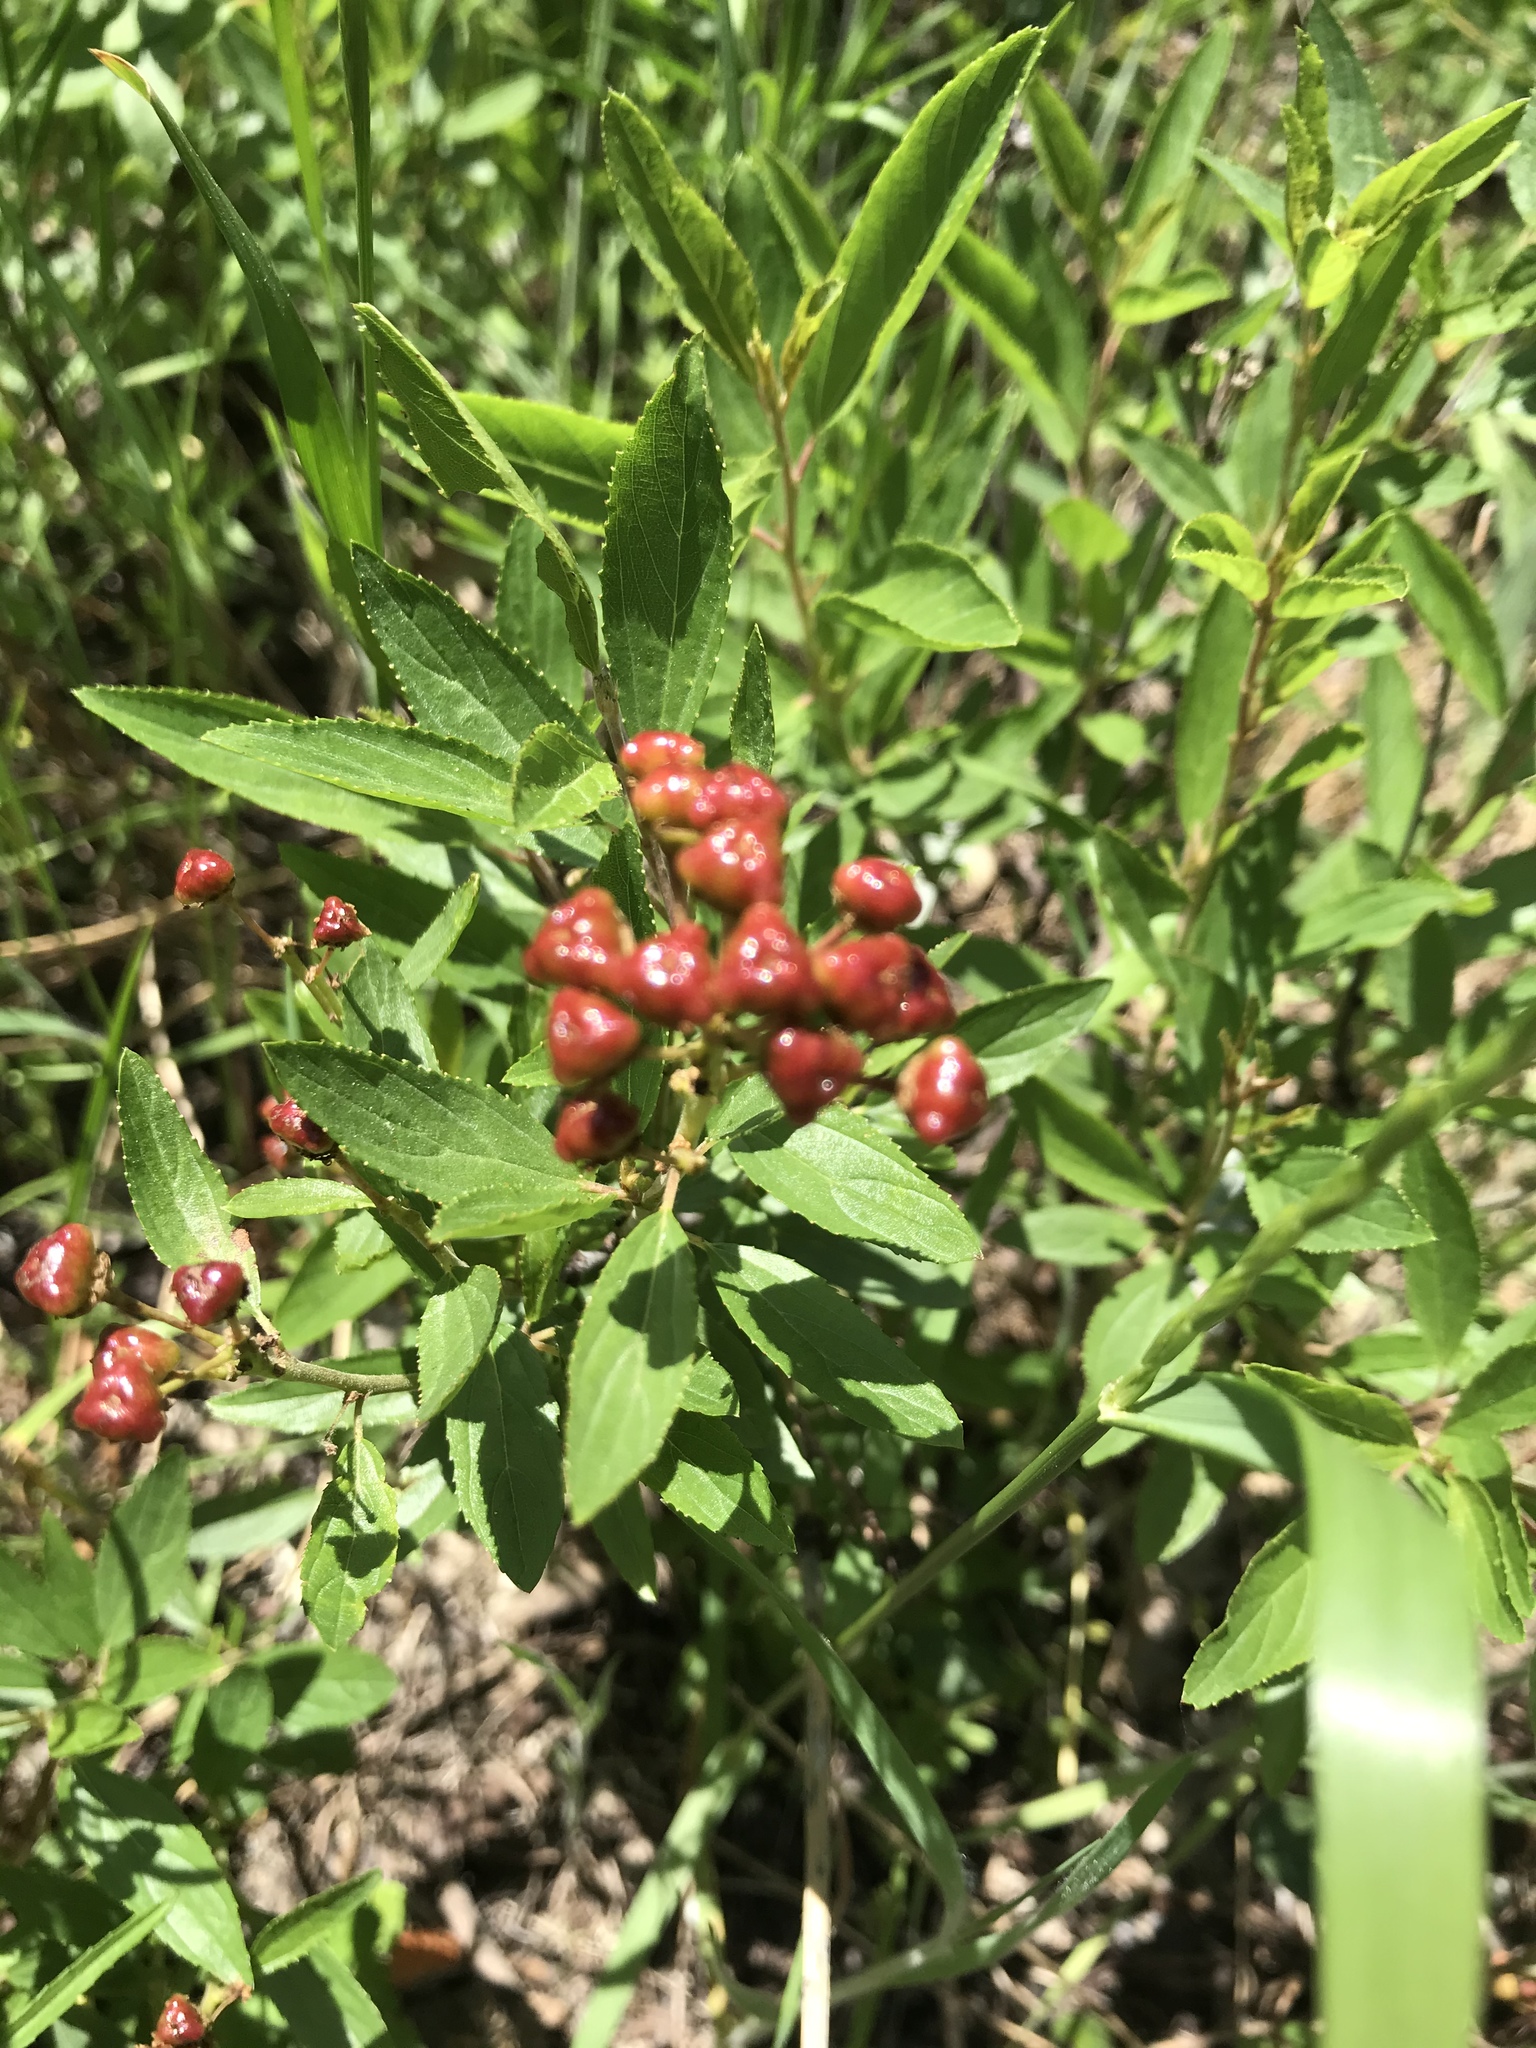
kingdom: Plantae
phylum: Tracheophyta
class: Magnoliopsida
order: Rosales
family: Rhamnaceae
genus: Ceanothus
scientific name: Ceanothus herbaceus
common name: Inland ceanothus
